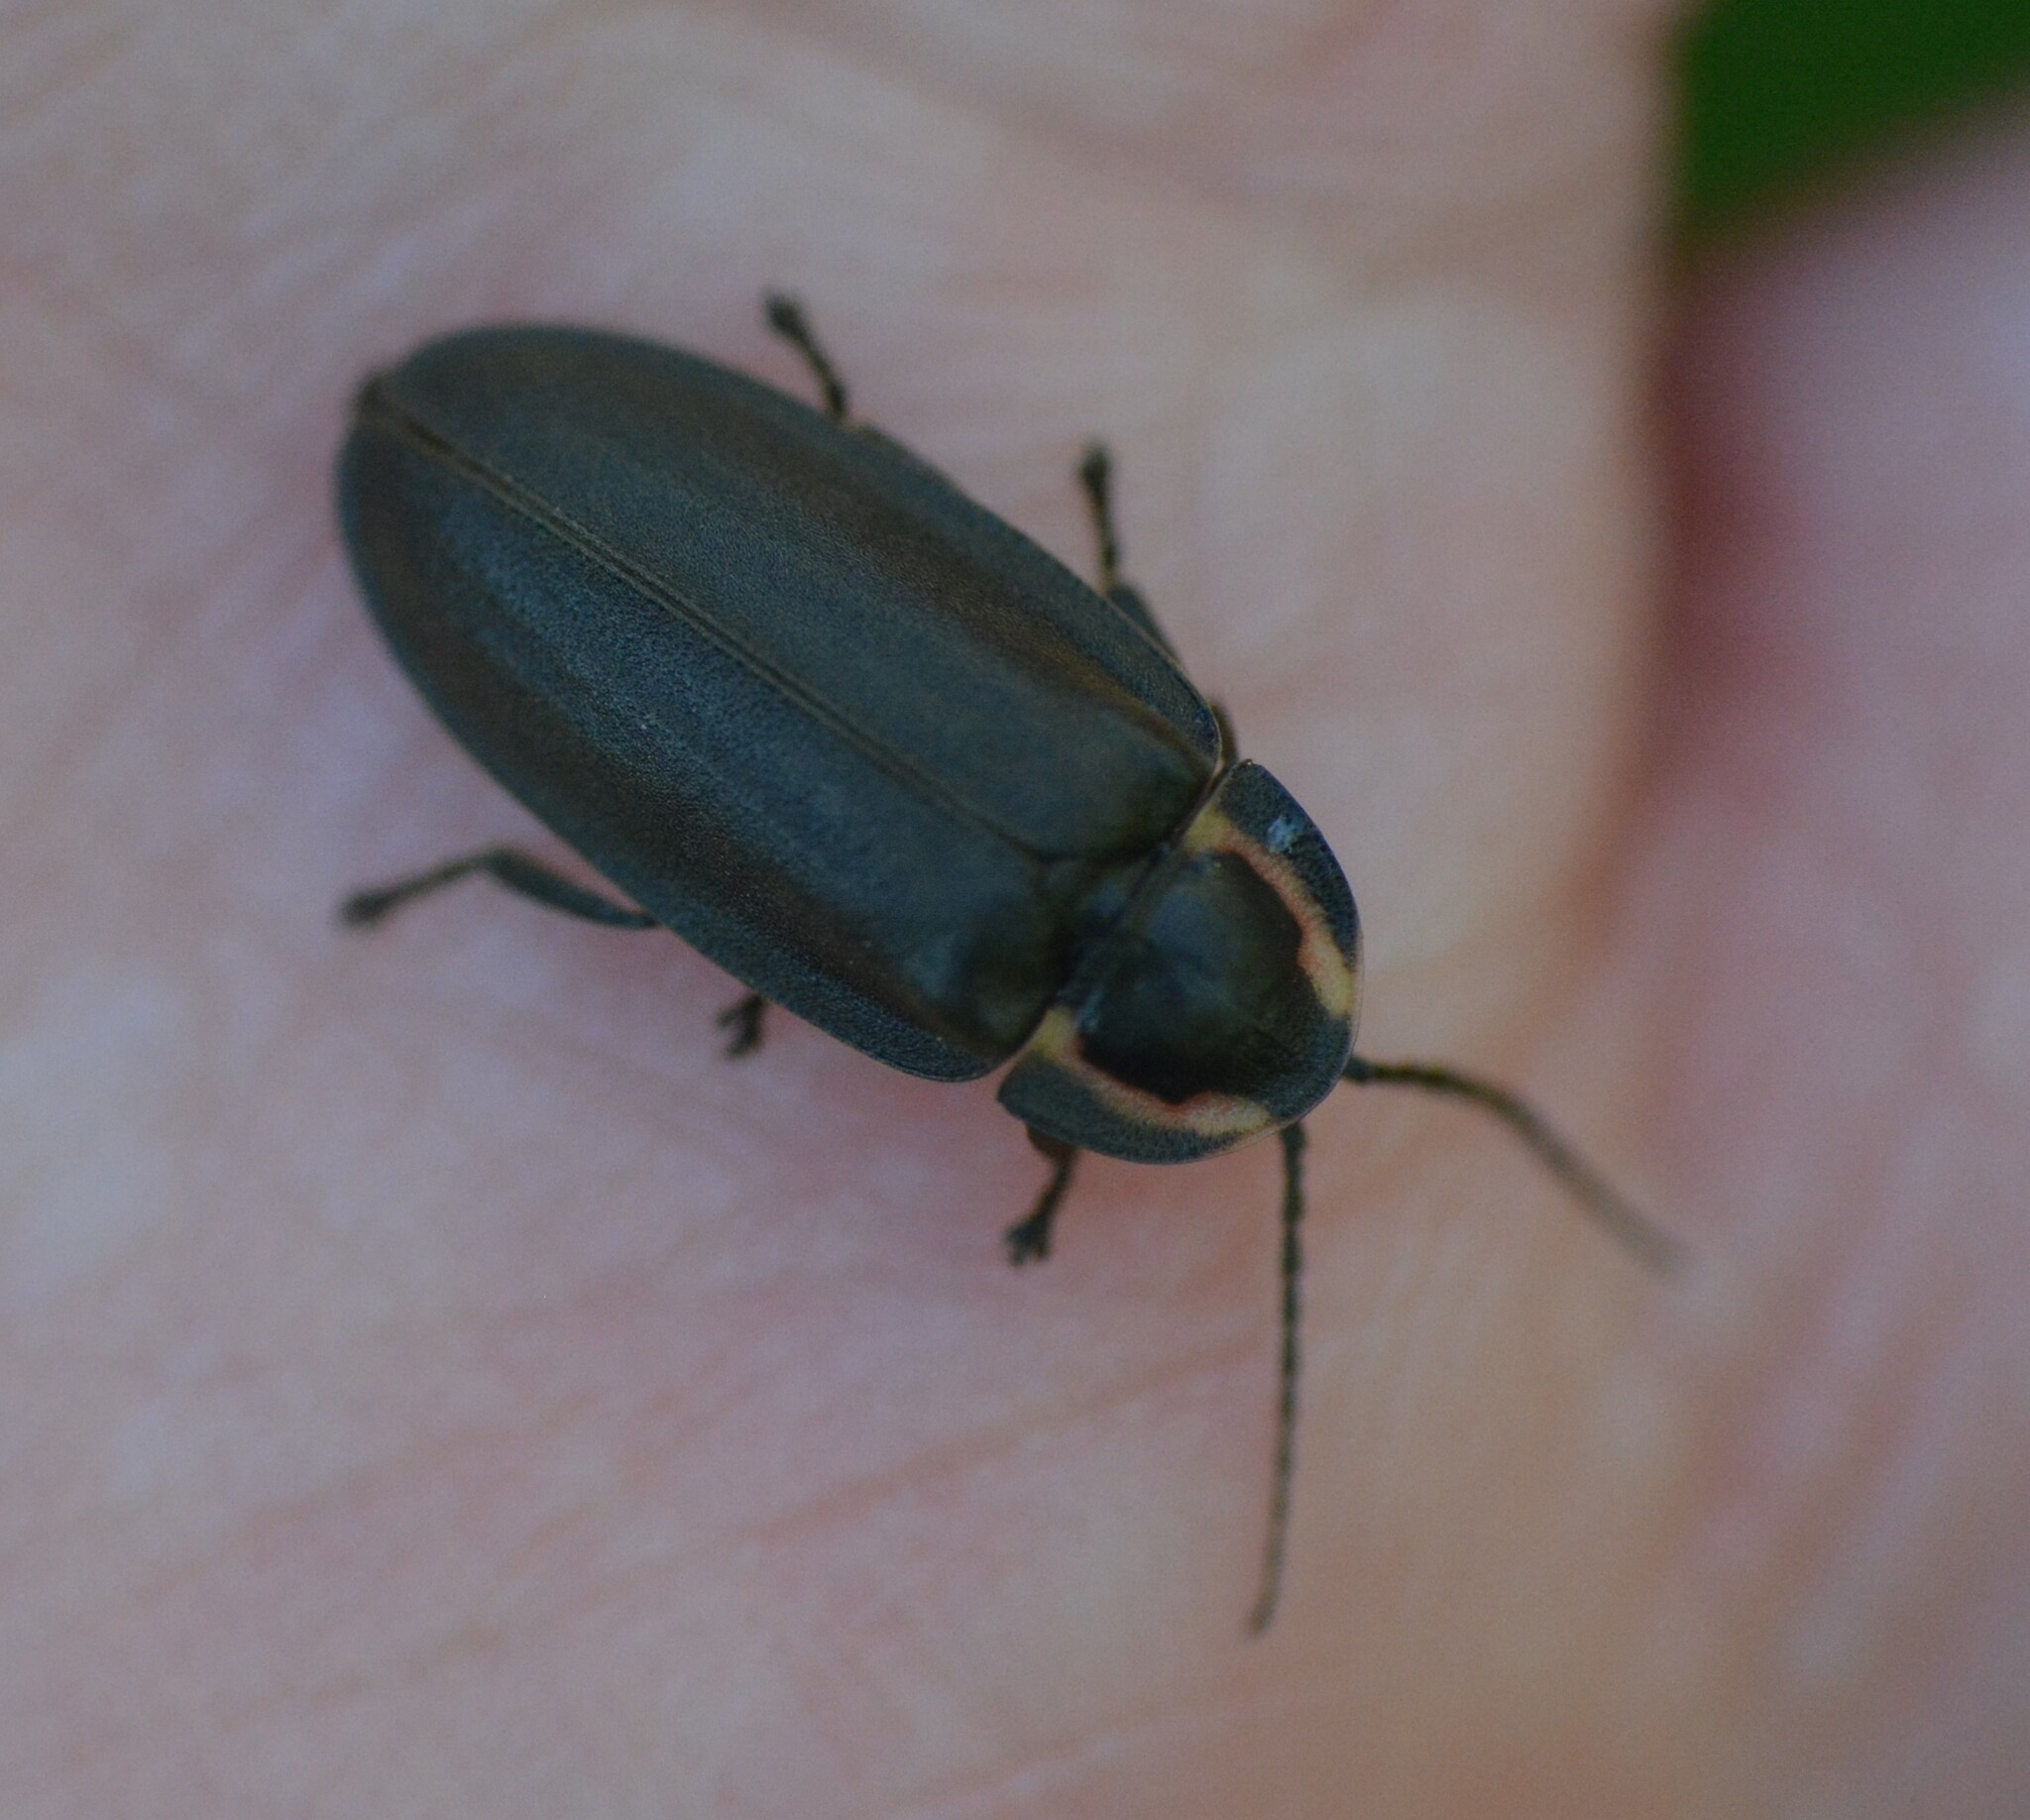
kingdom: Animalia
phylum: Arthropoda
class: Insecta
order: Coleoptera
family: Lampyridae
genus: Photinus
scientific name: Photinus corrusca
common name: Winter firefly
